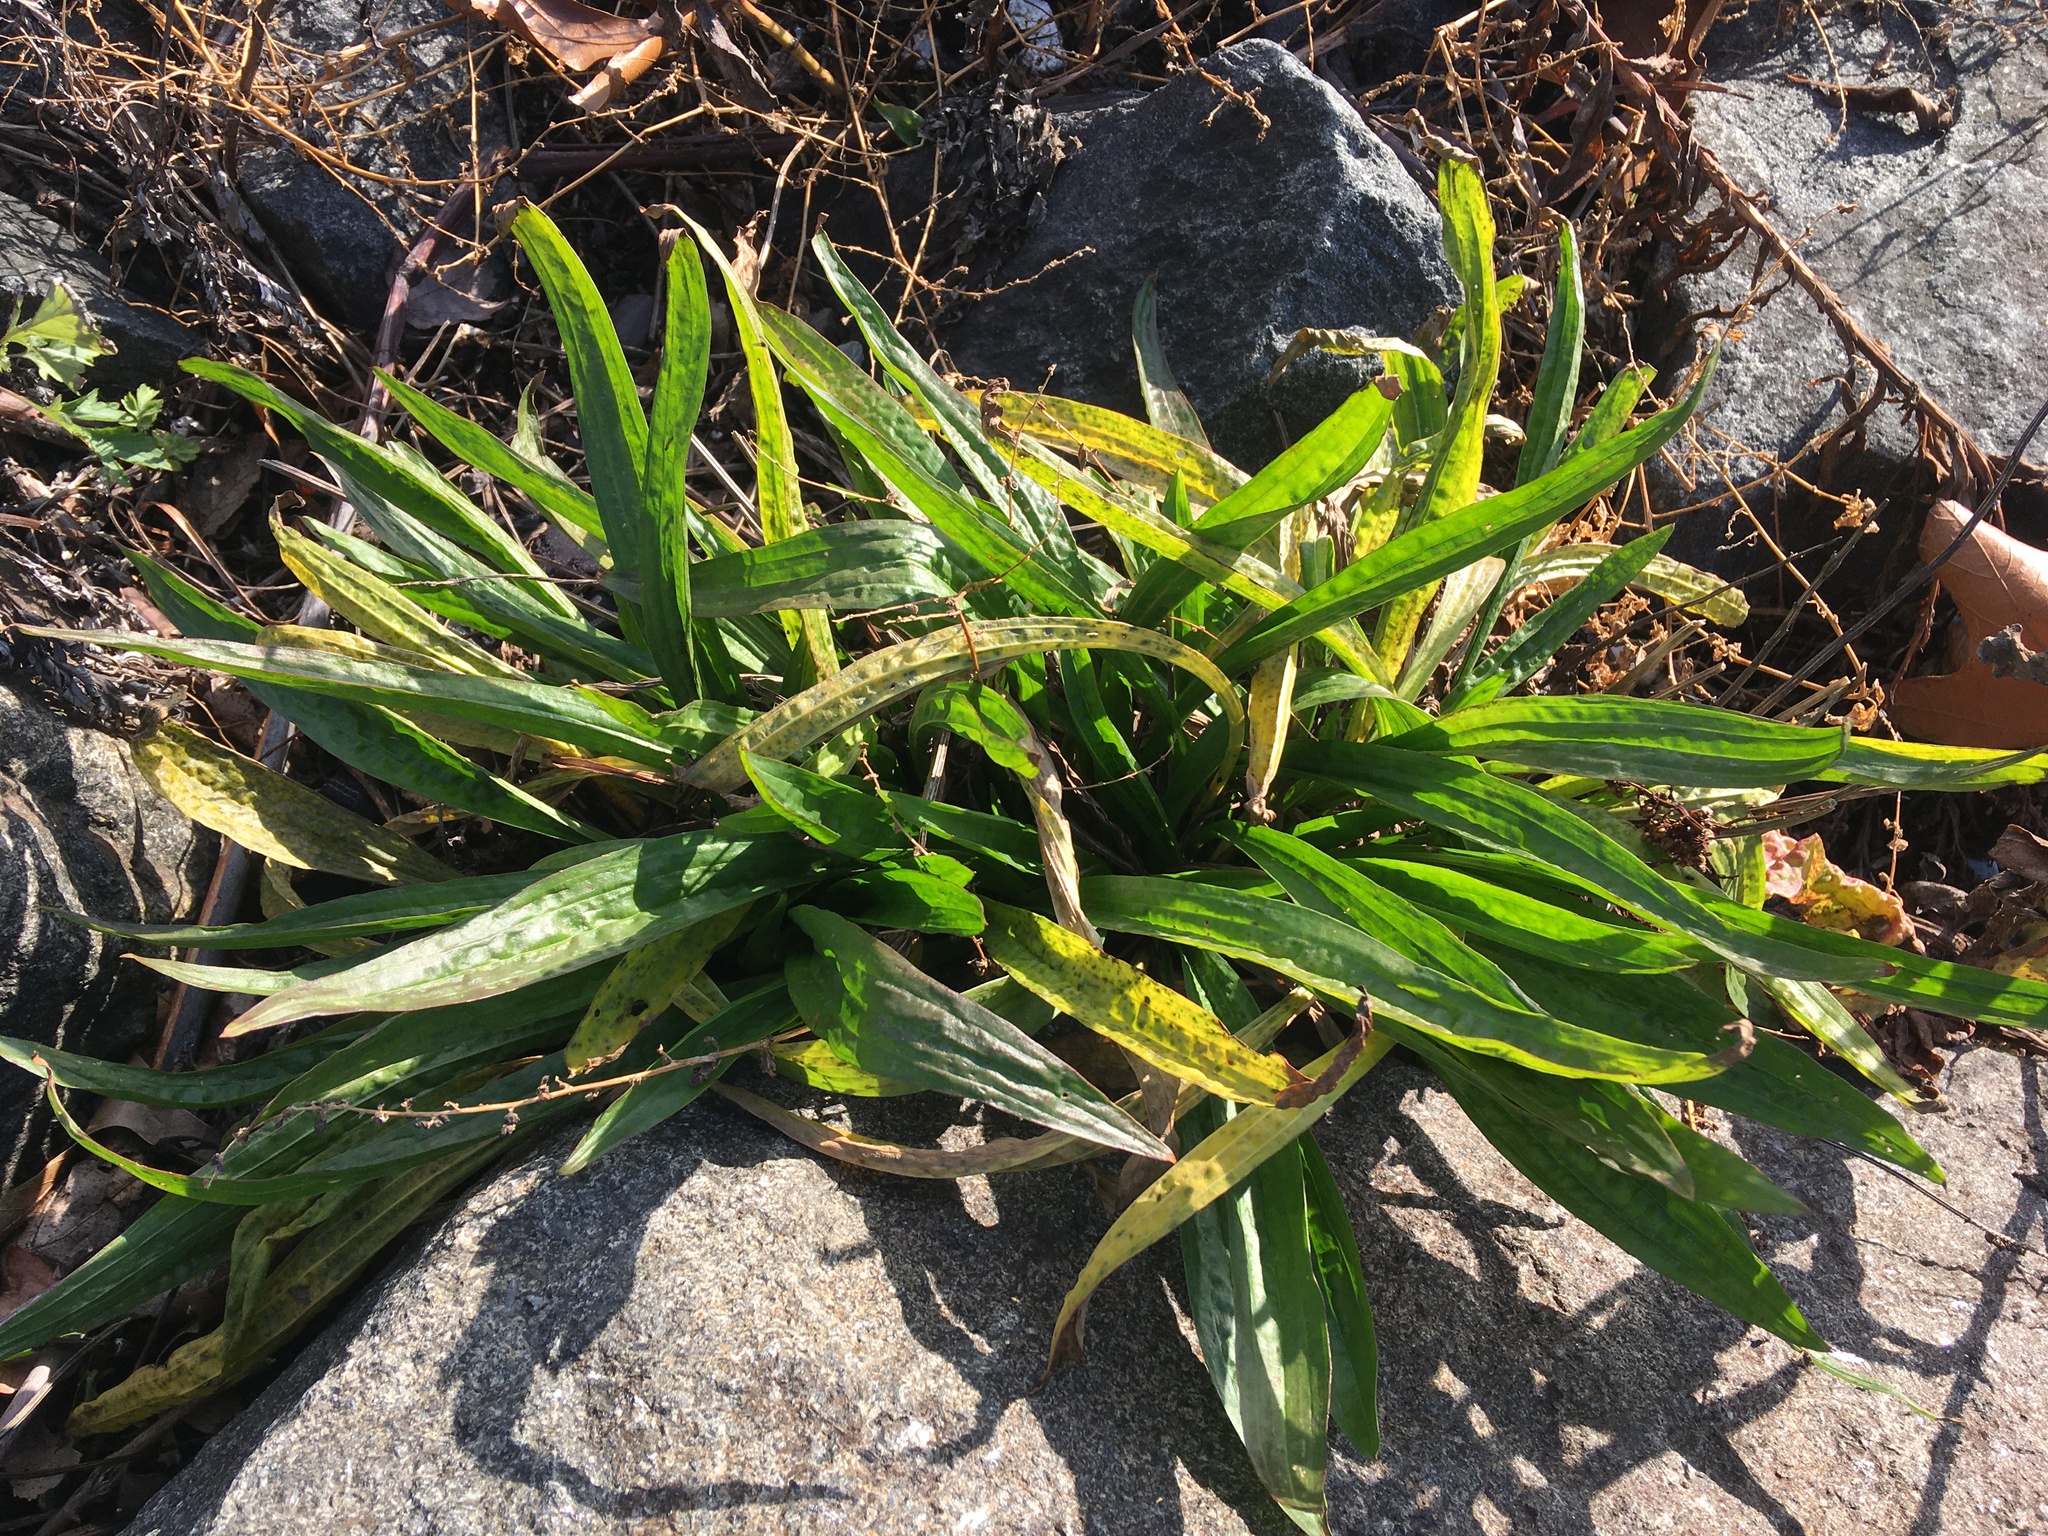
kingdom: Plantae
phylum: Tracheophyta
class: Magnoliopsida
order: Lamiales
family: Plantaginaceae
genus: Plantago
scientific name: Plantago lanceolata
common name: Ribwort plantain
